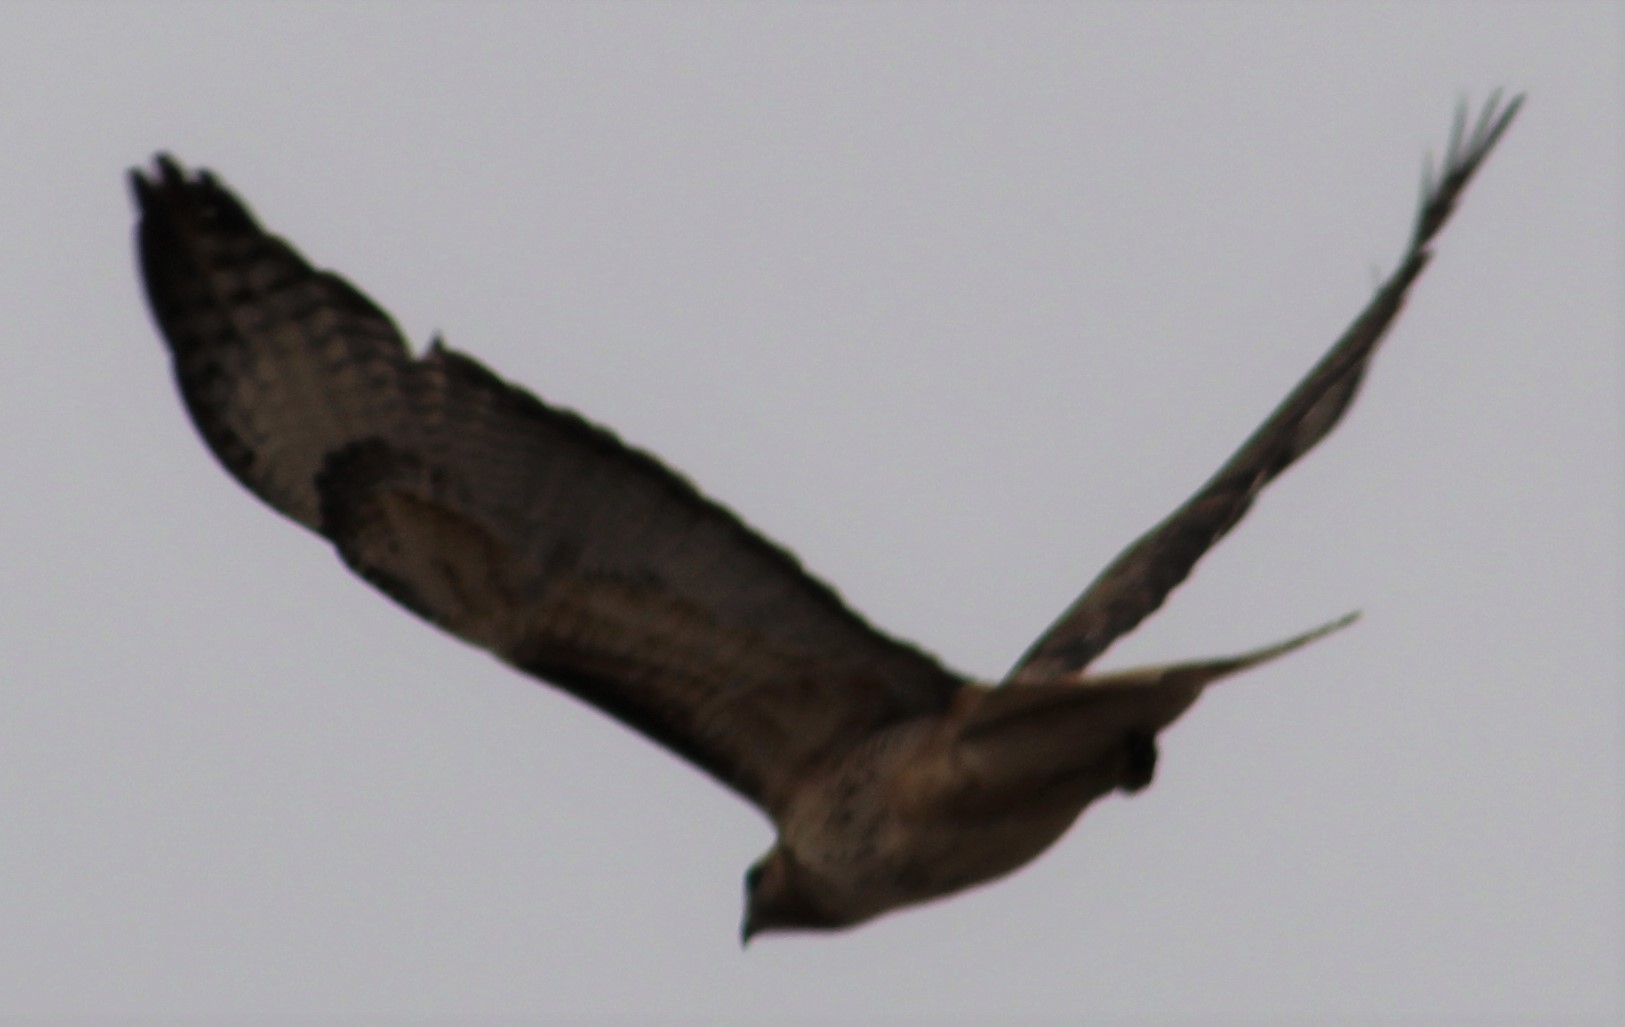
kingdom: Animalia
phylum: Chordata
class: Aves
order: Accipitriformes
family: Accipitridae
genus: Buteo
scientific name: Buteo jamaicensis
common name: Red-tailed hawk
